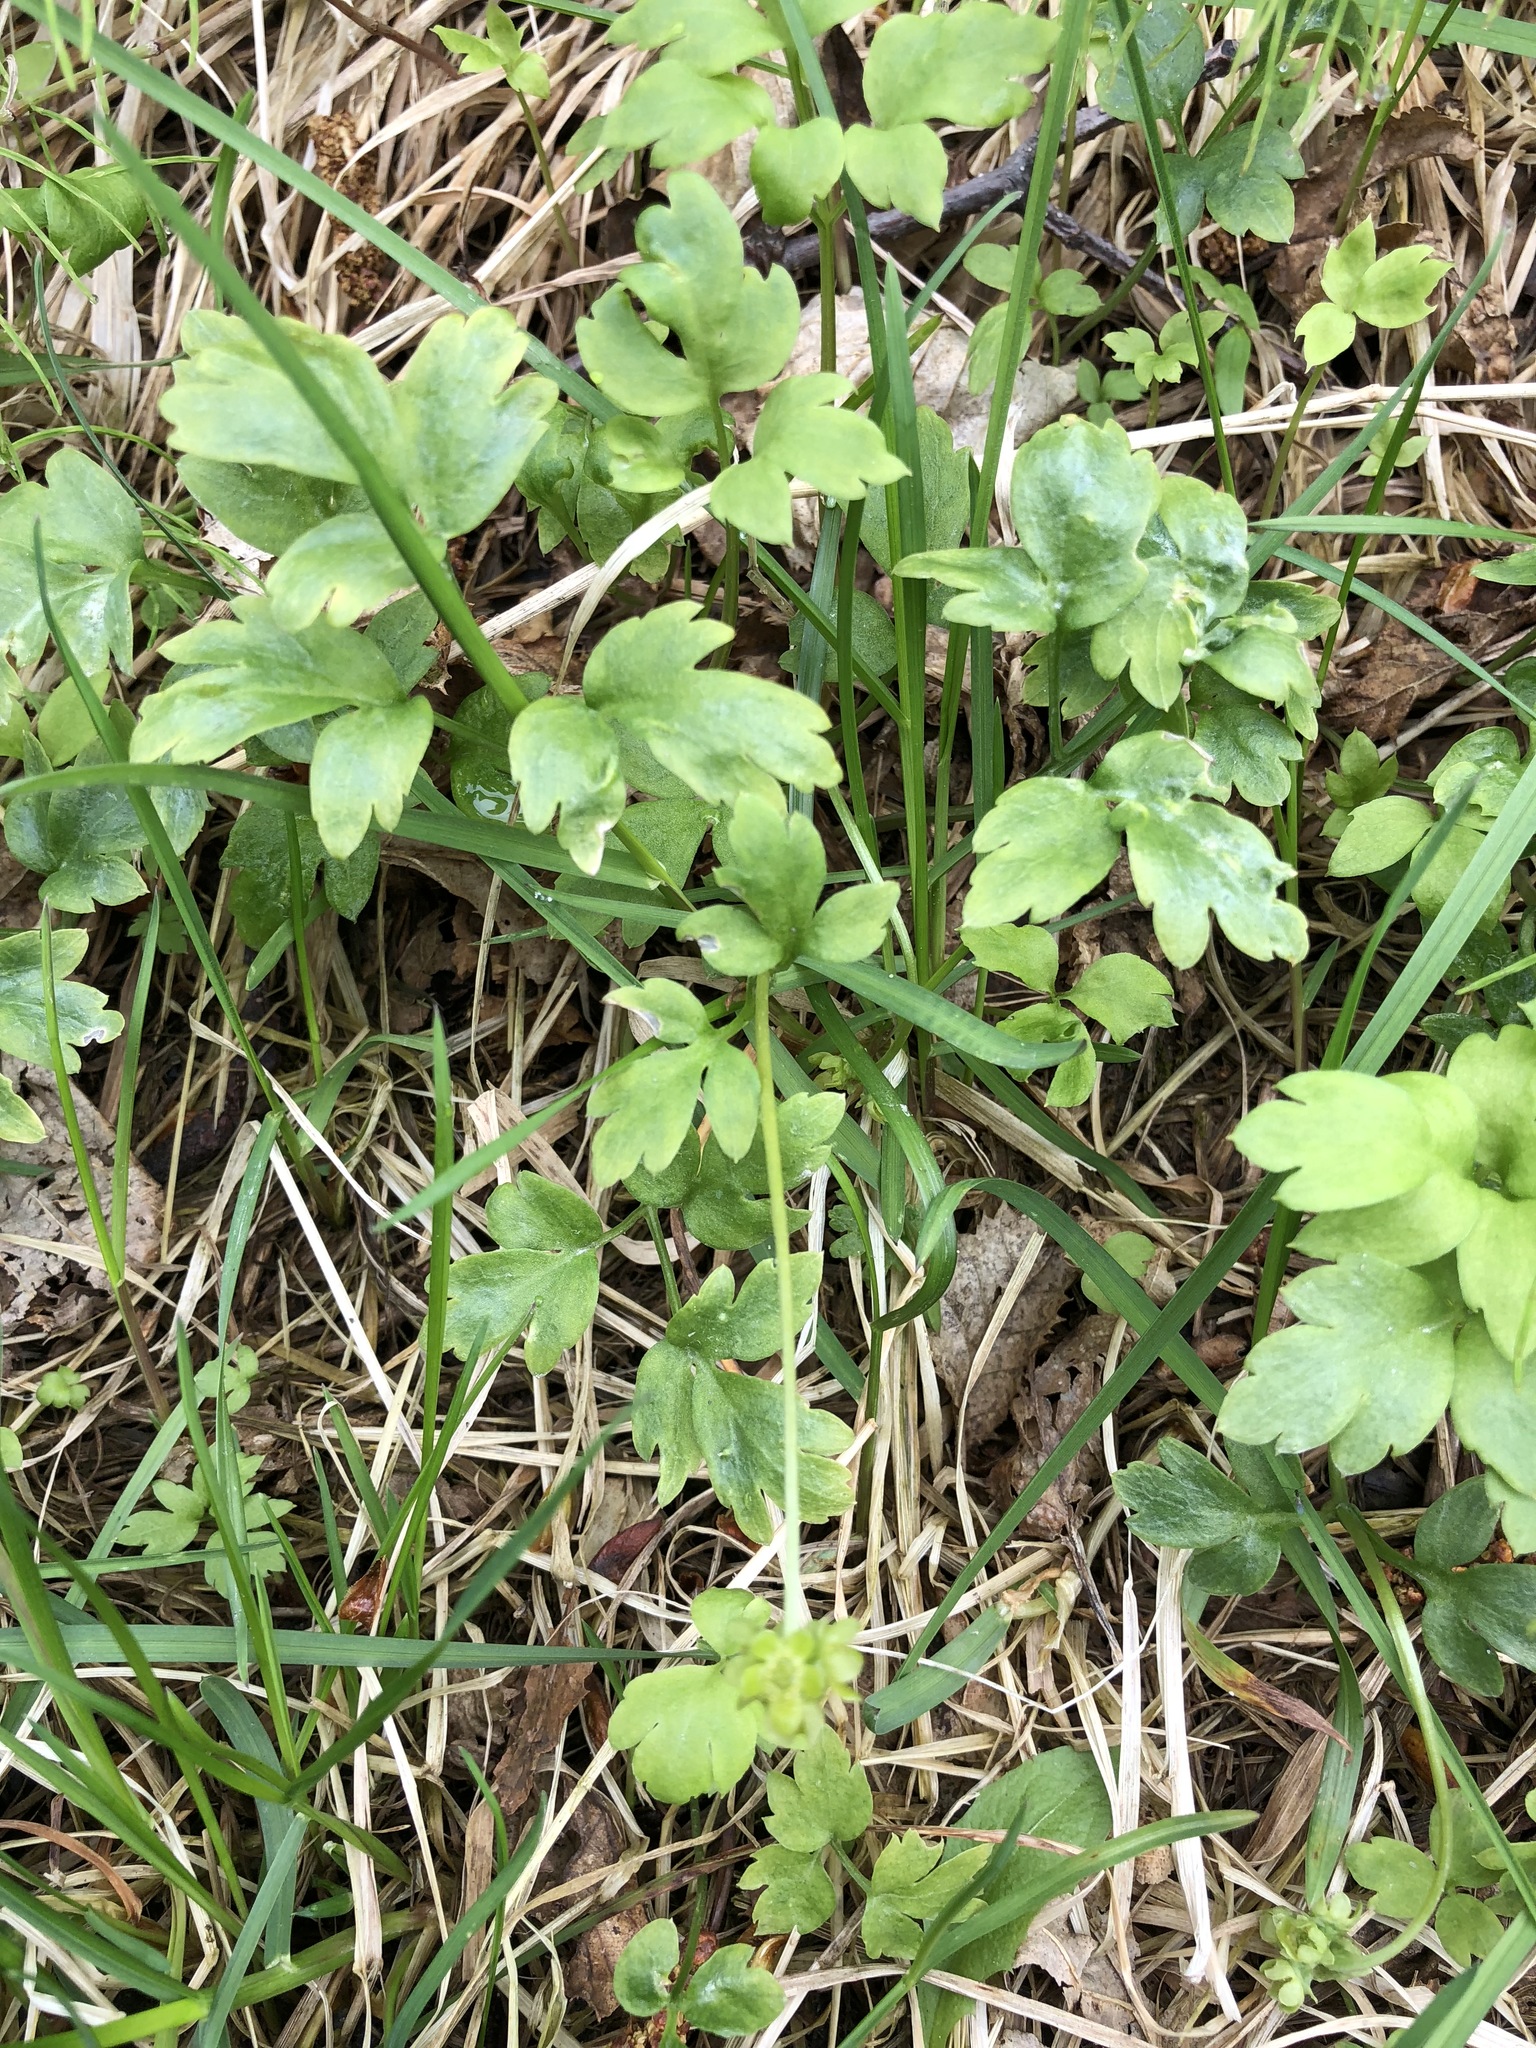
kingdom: Plantae
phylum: Tracheophyta
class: Magnoliopsida
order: Dipsacales
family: Viburnaceae
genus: Adoxa
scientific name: Adoxa moschatellina
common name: Moschatel
